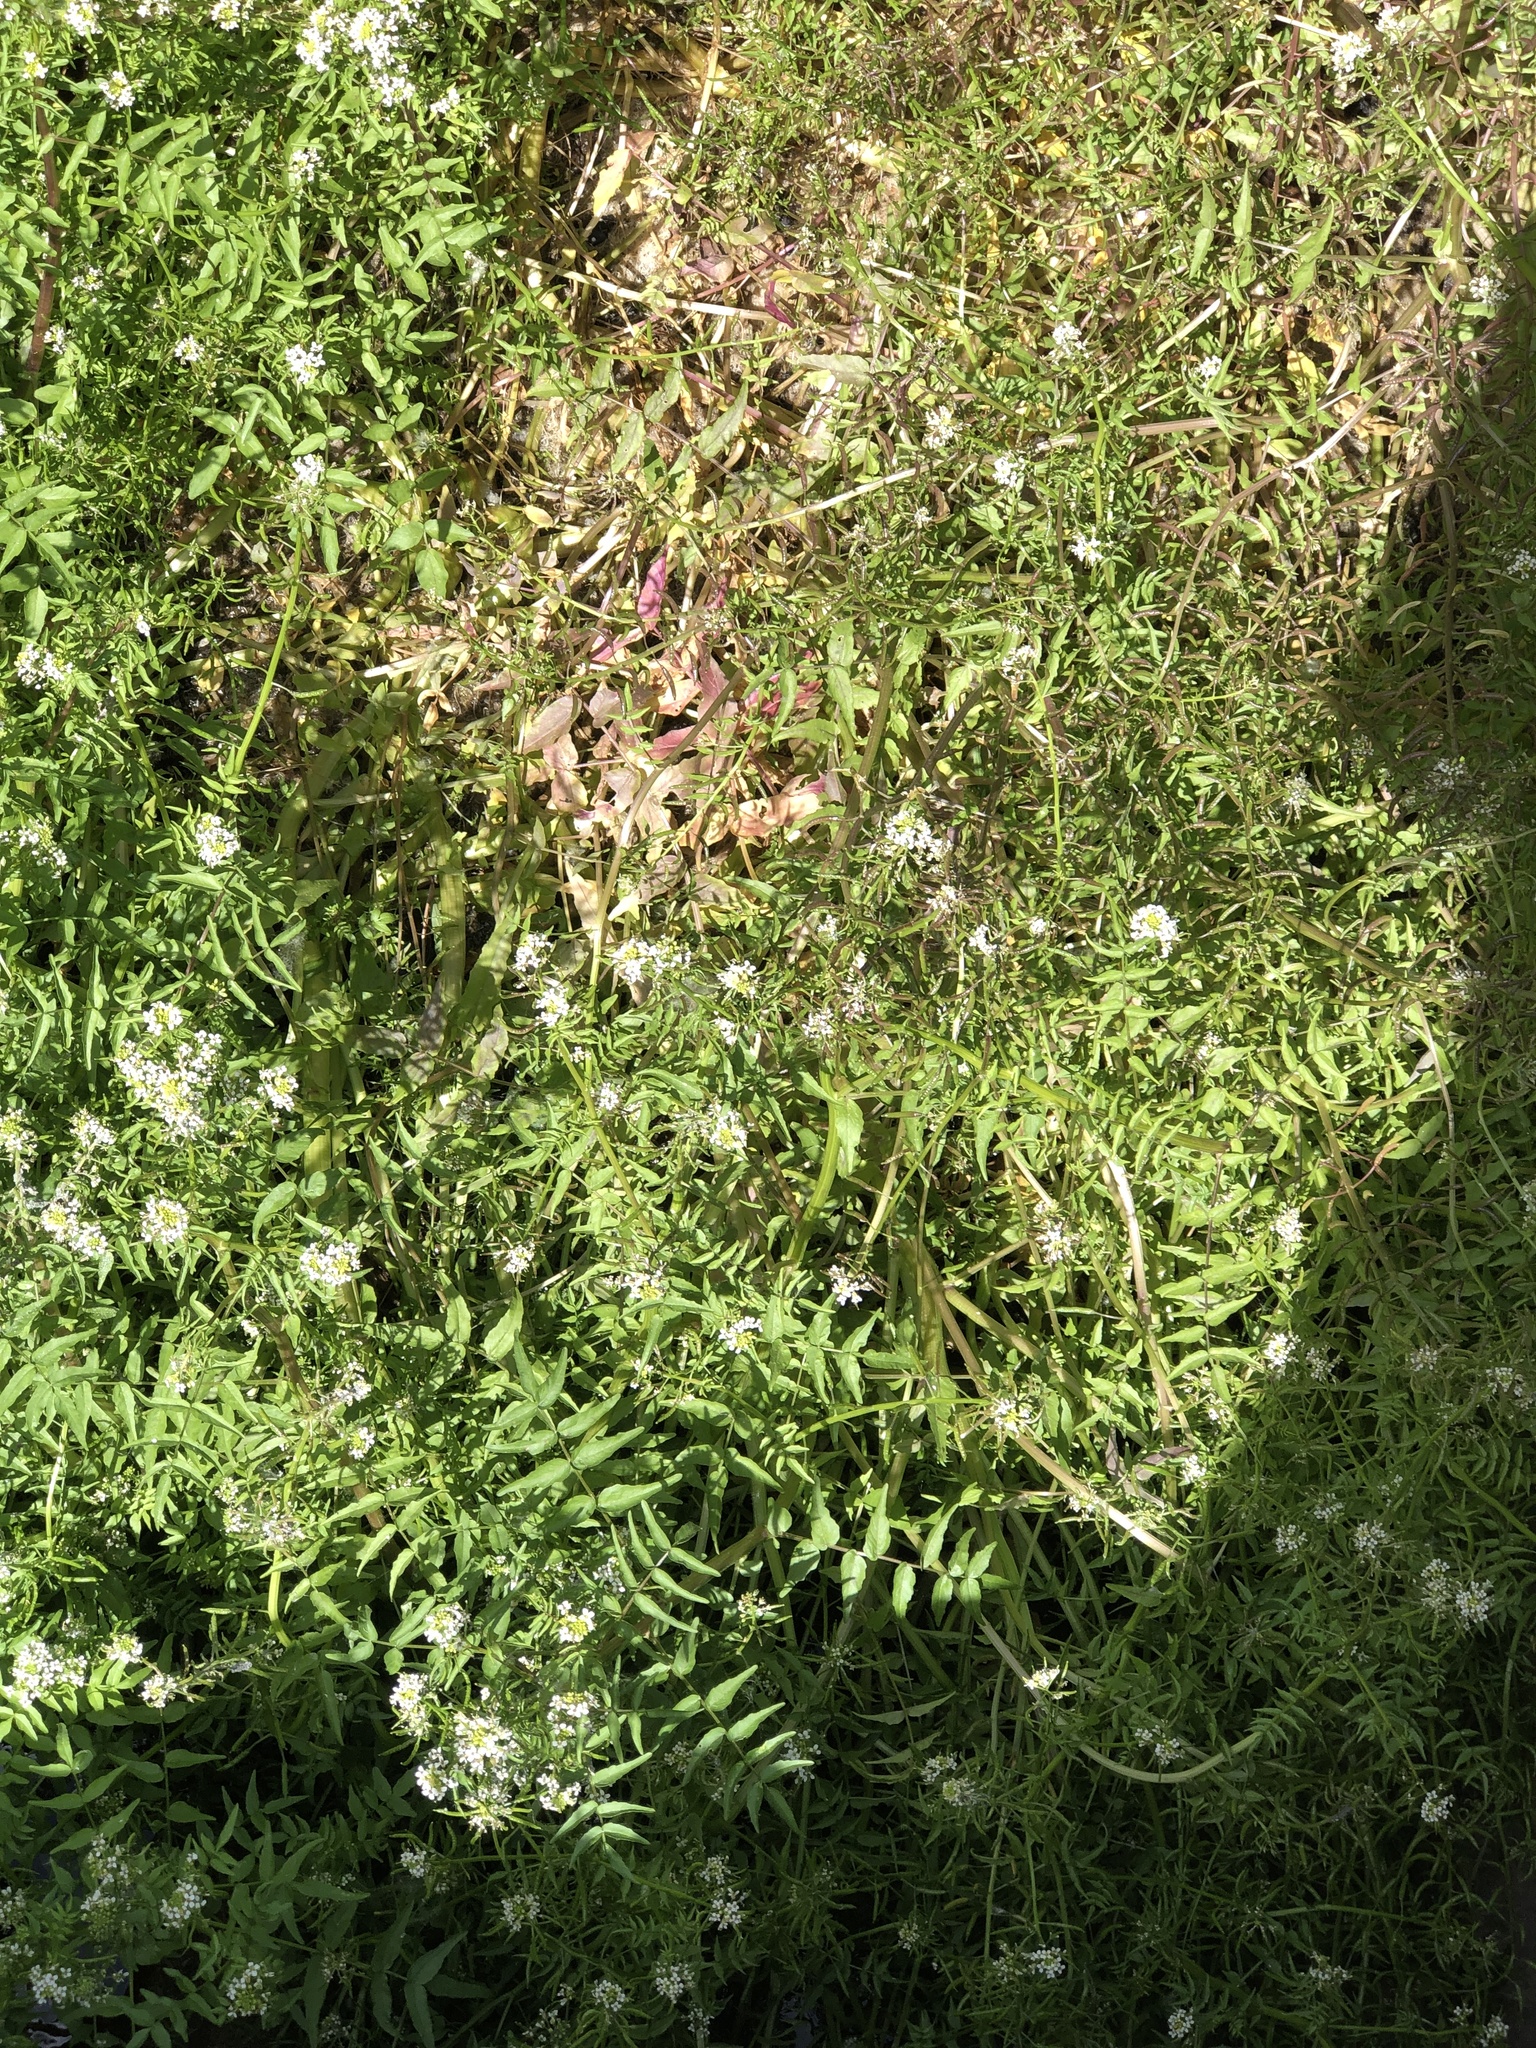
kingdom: Plantae
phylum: Tracheophyta
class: Magnoliopsida
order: Brassicales
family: Brassicaceae
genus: Nasturtium
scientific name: Nasturtium officinale
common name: Watercress
